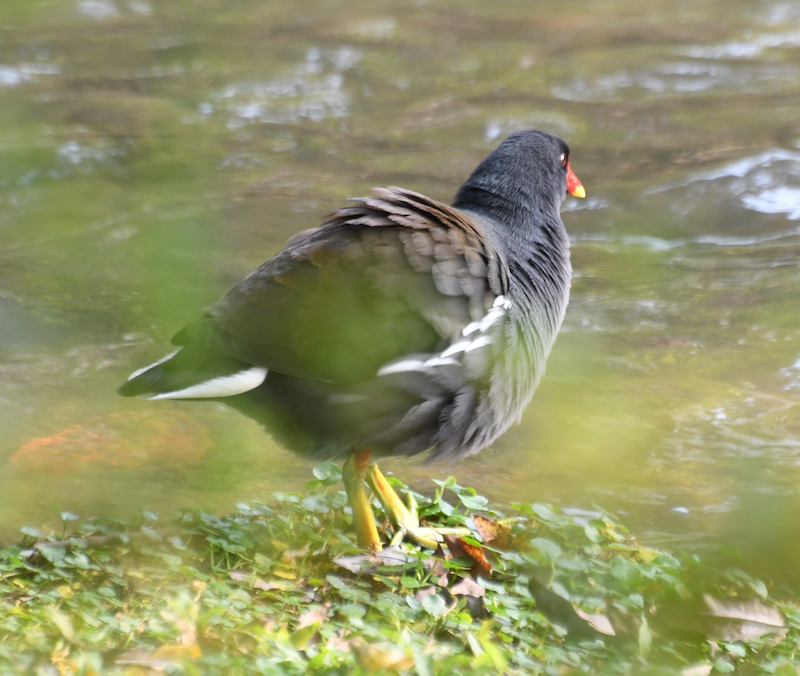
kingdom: Animalia
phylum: Chordata
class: Aves
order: Gruiformes
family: Rallidae
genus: Gallinula
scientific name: Gallinula chloropus
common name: Common moorhen
